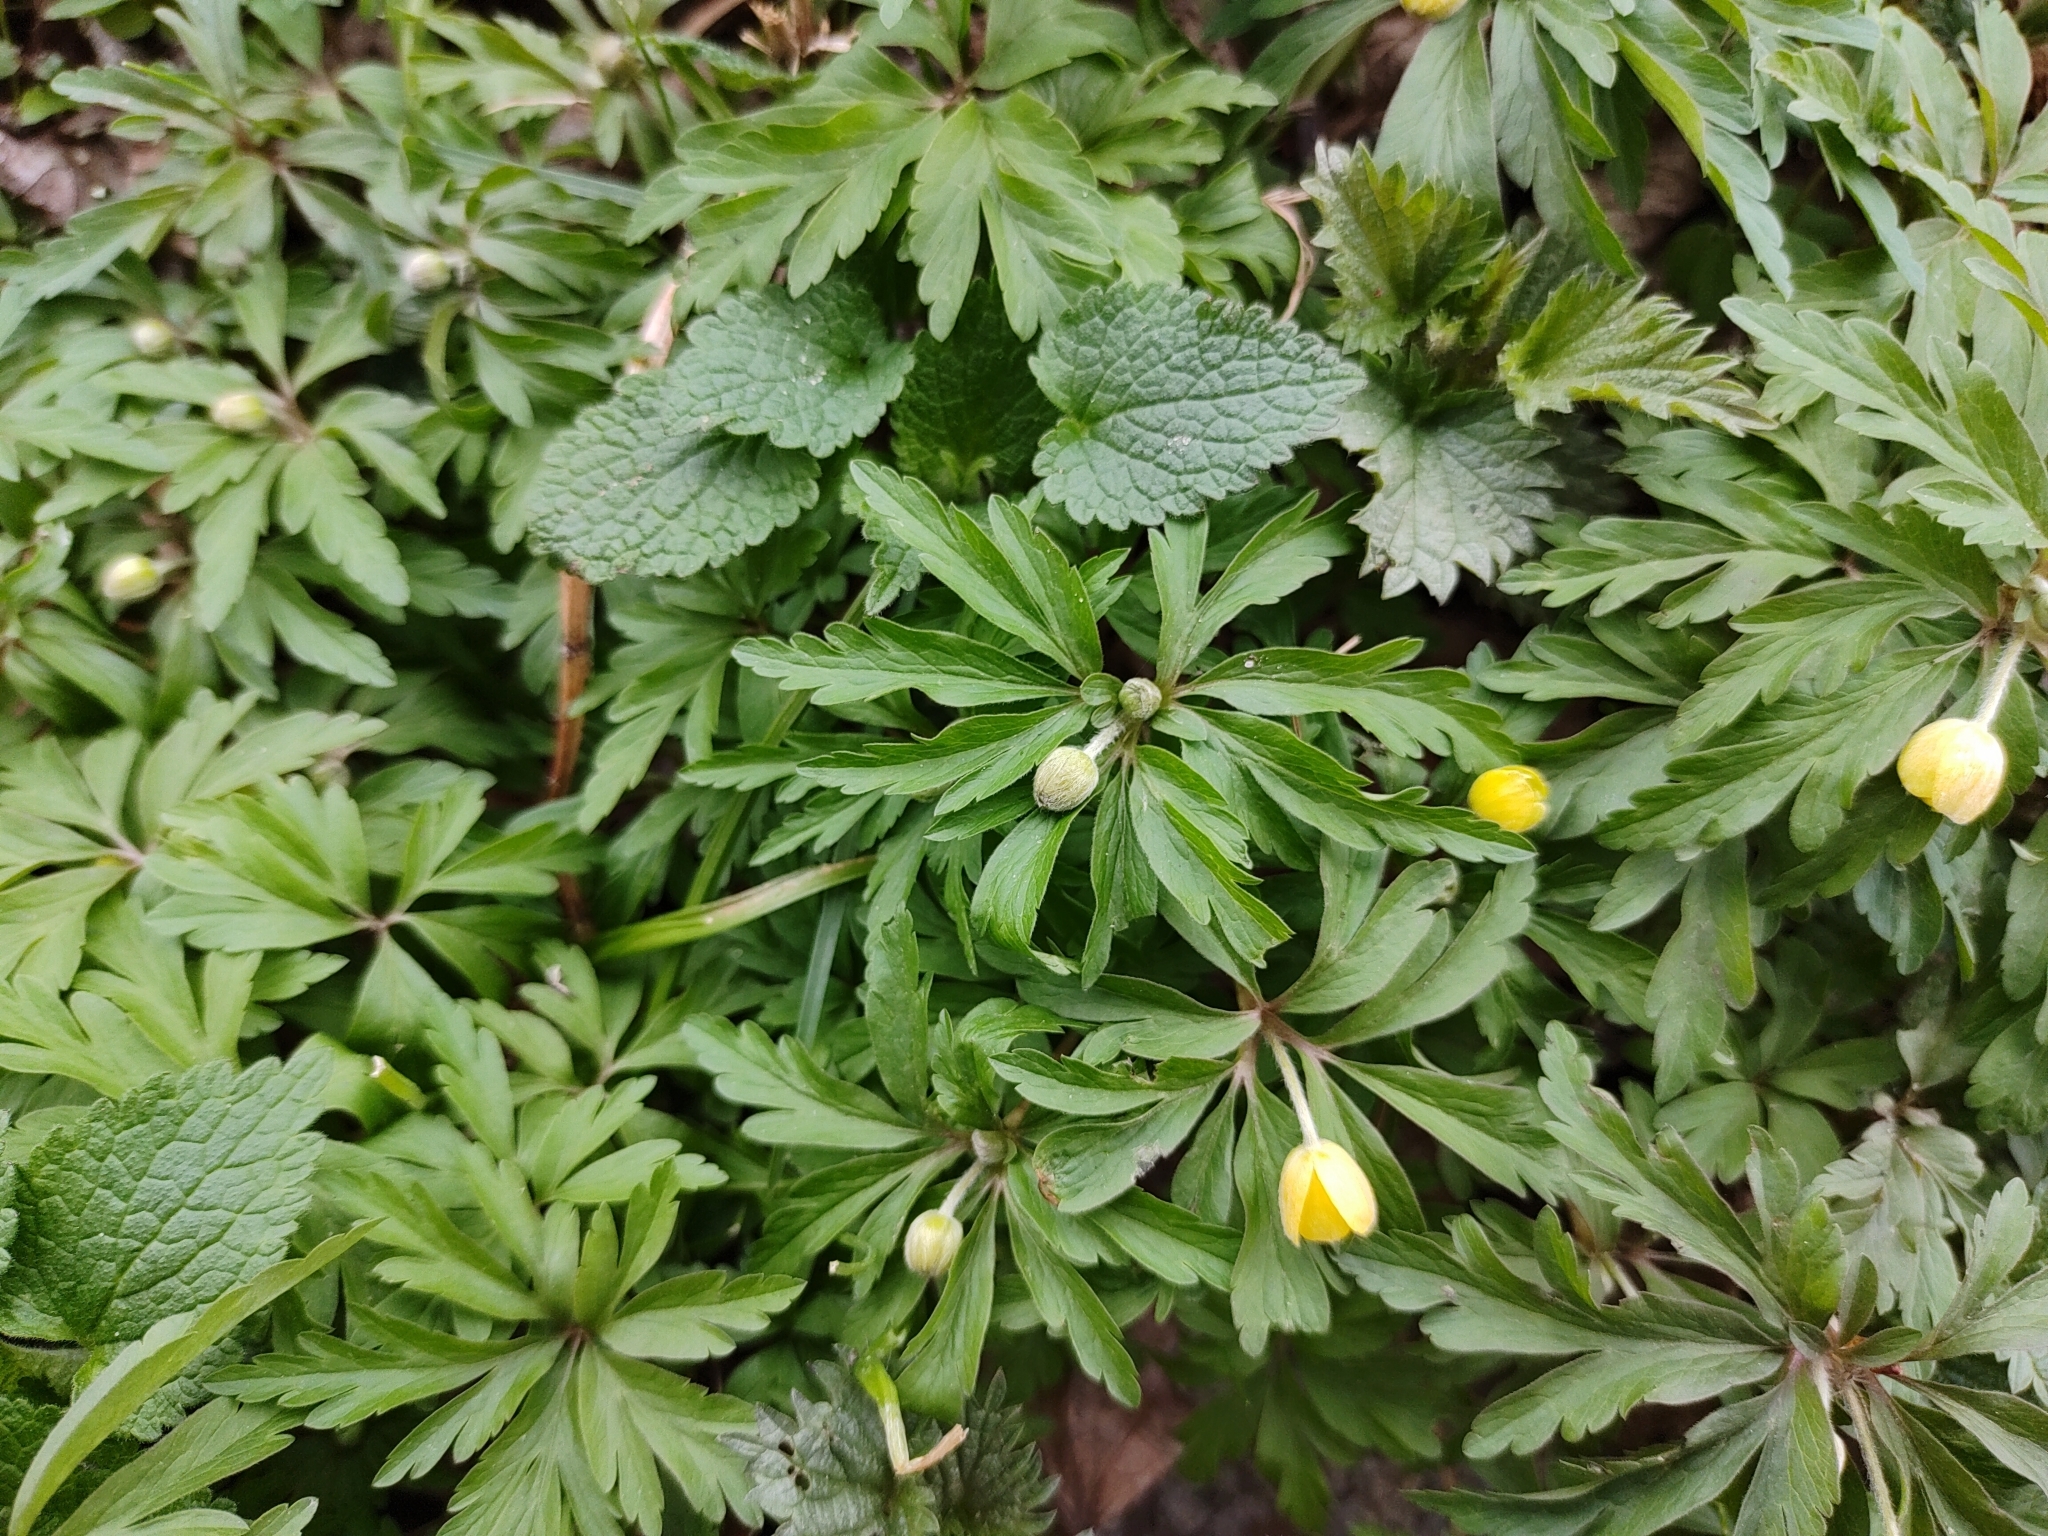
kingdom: Plantae
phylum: Tracheophyta
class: Magnoliopsida
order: Ranunculales
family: Ranunculaceae
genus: Anemone
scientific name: Anemone ranunculoides
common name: Yellow anemone
